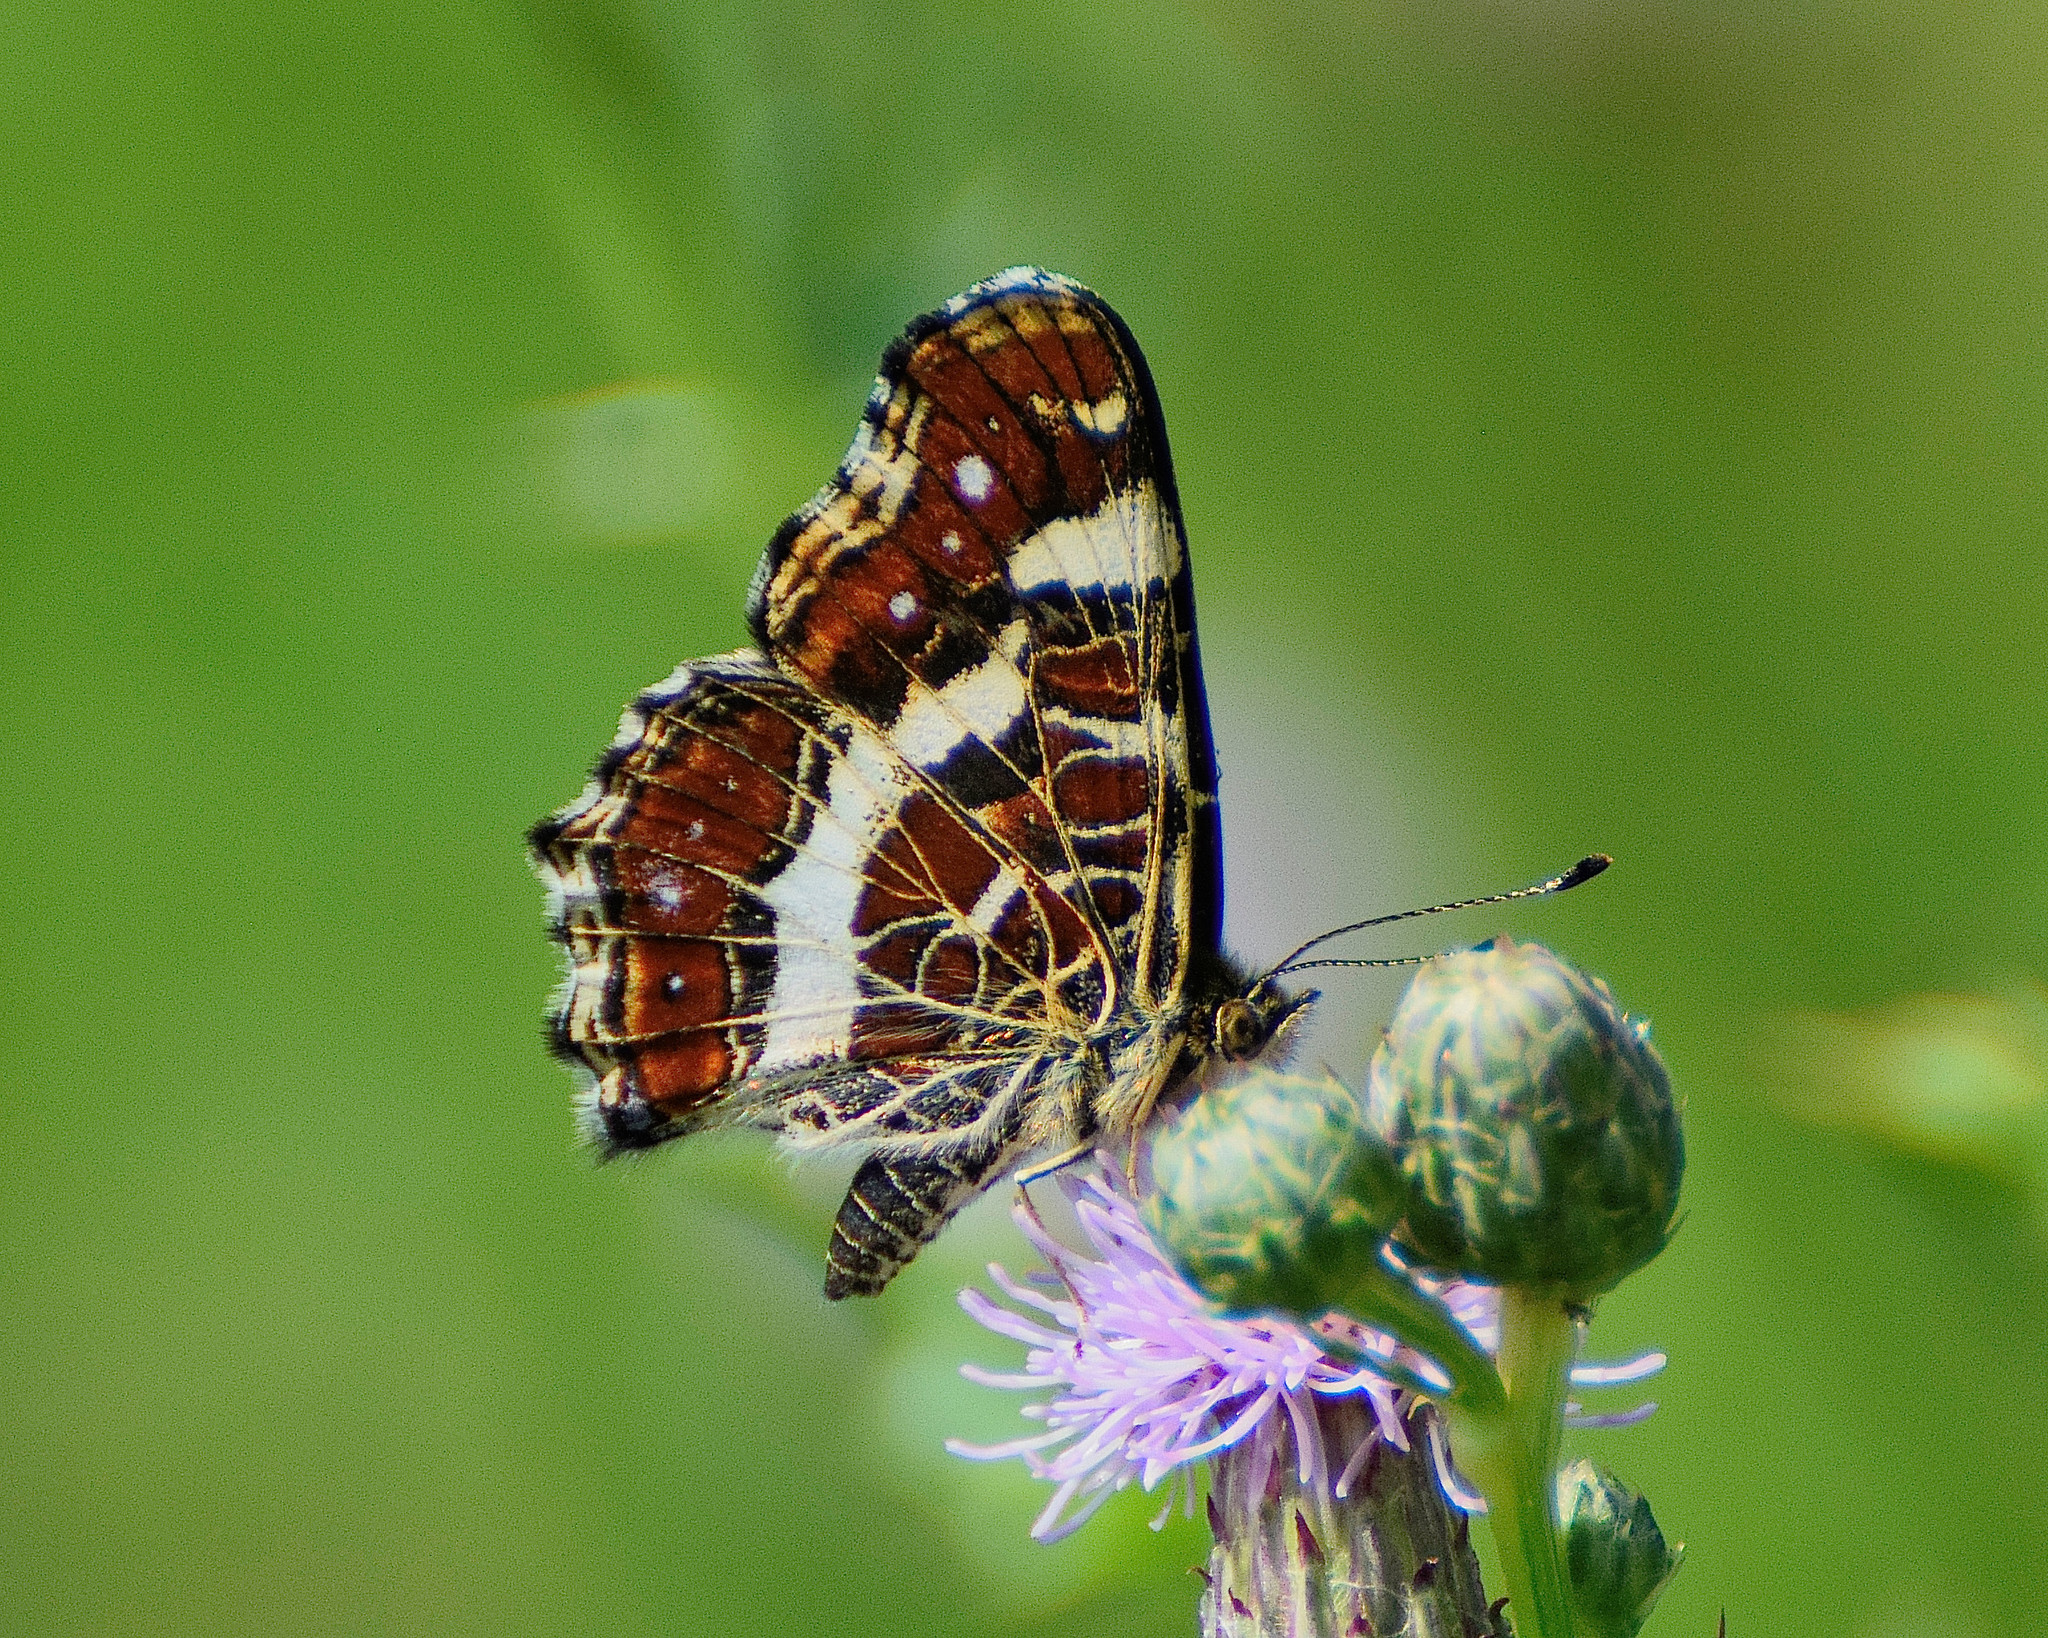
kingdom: Animalia
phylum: Arthropoda
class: Insecta
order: Lepidoptera
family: Nymphalidae
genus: Araschnia
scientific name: Araschnia levana
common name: Map butterfly
